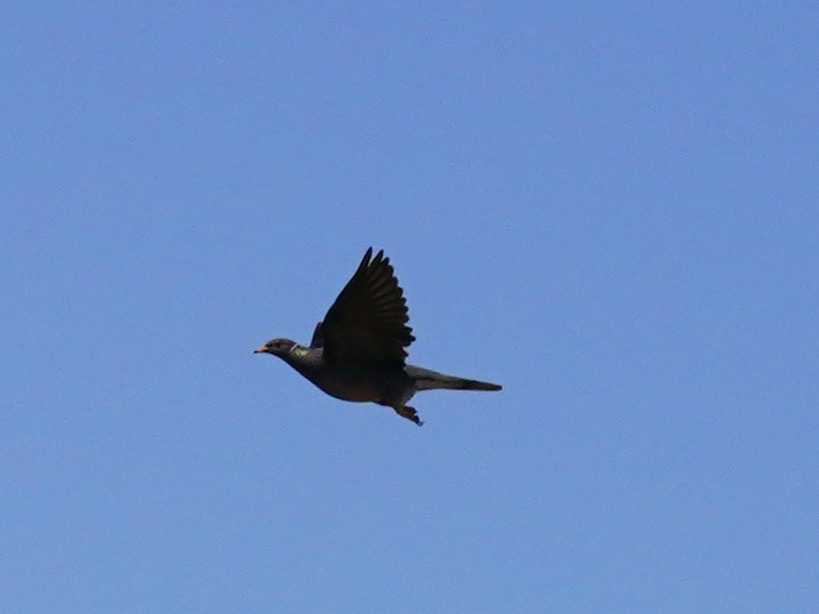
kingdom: Animalia
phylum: Chordata
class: Aves
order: Columbiformes
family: Columbidae
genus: Patagioenas
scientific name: Patagioenas fasciata
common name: Band-tailed pigeon
